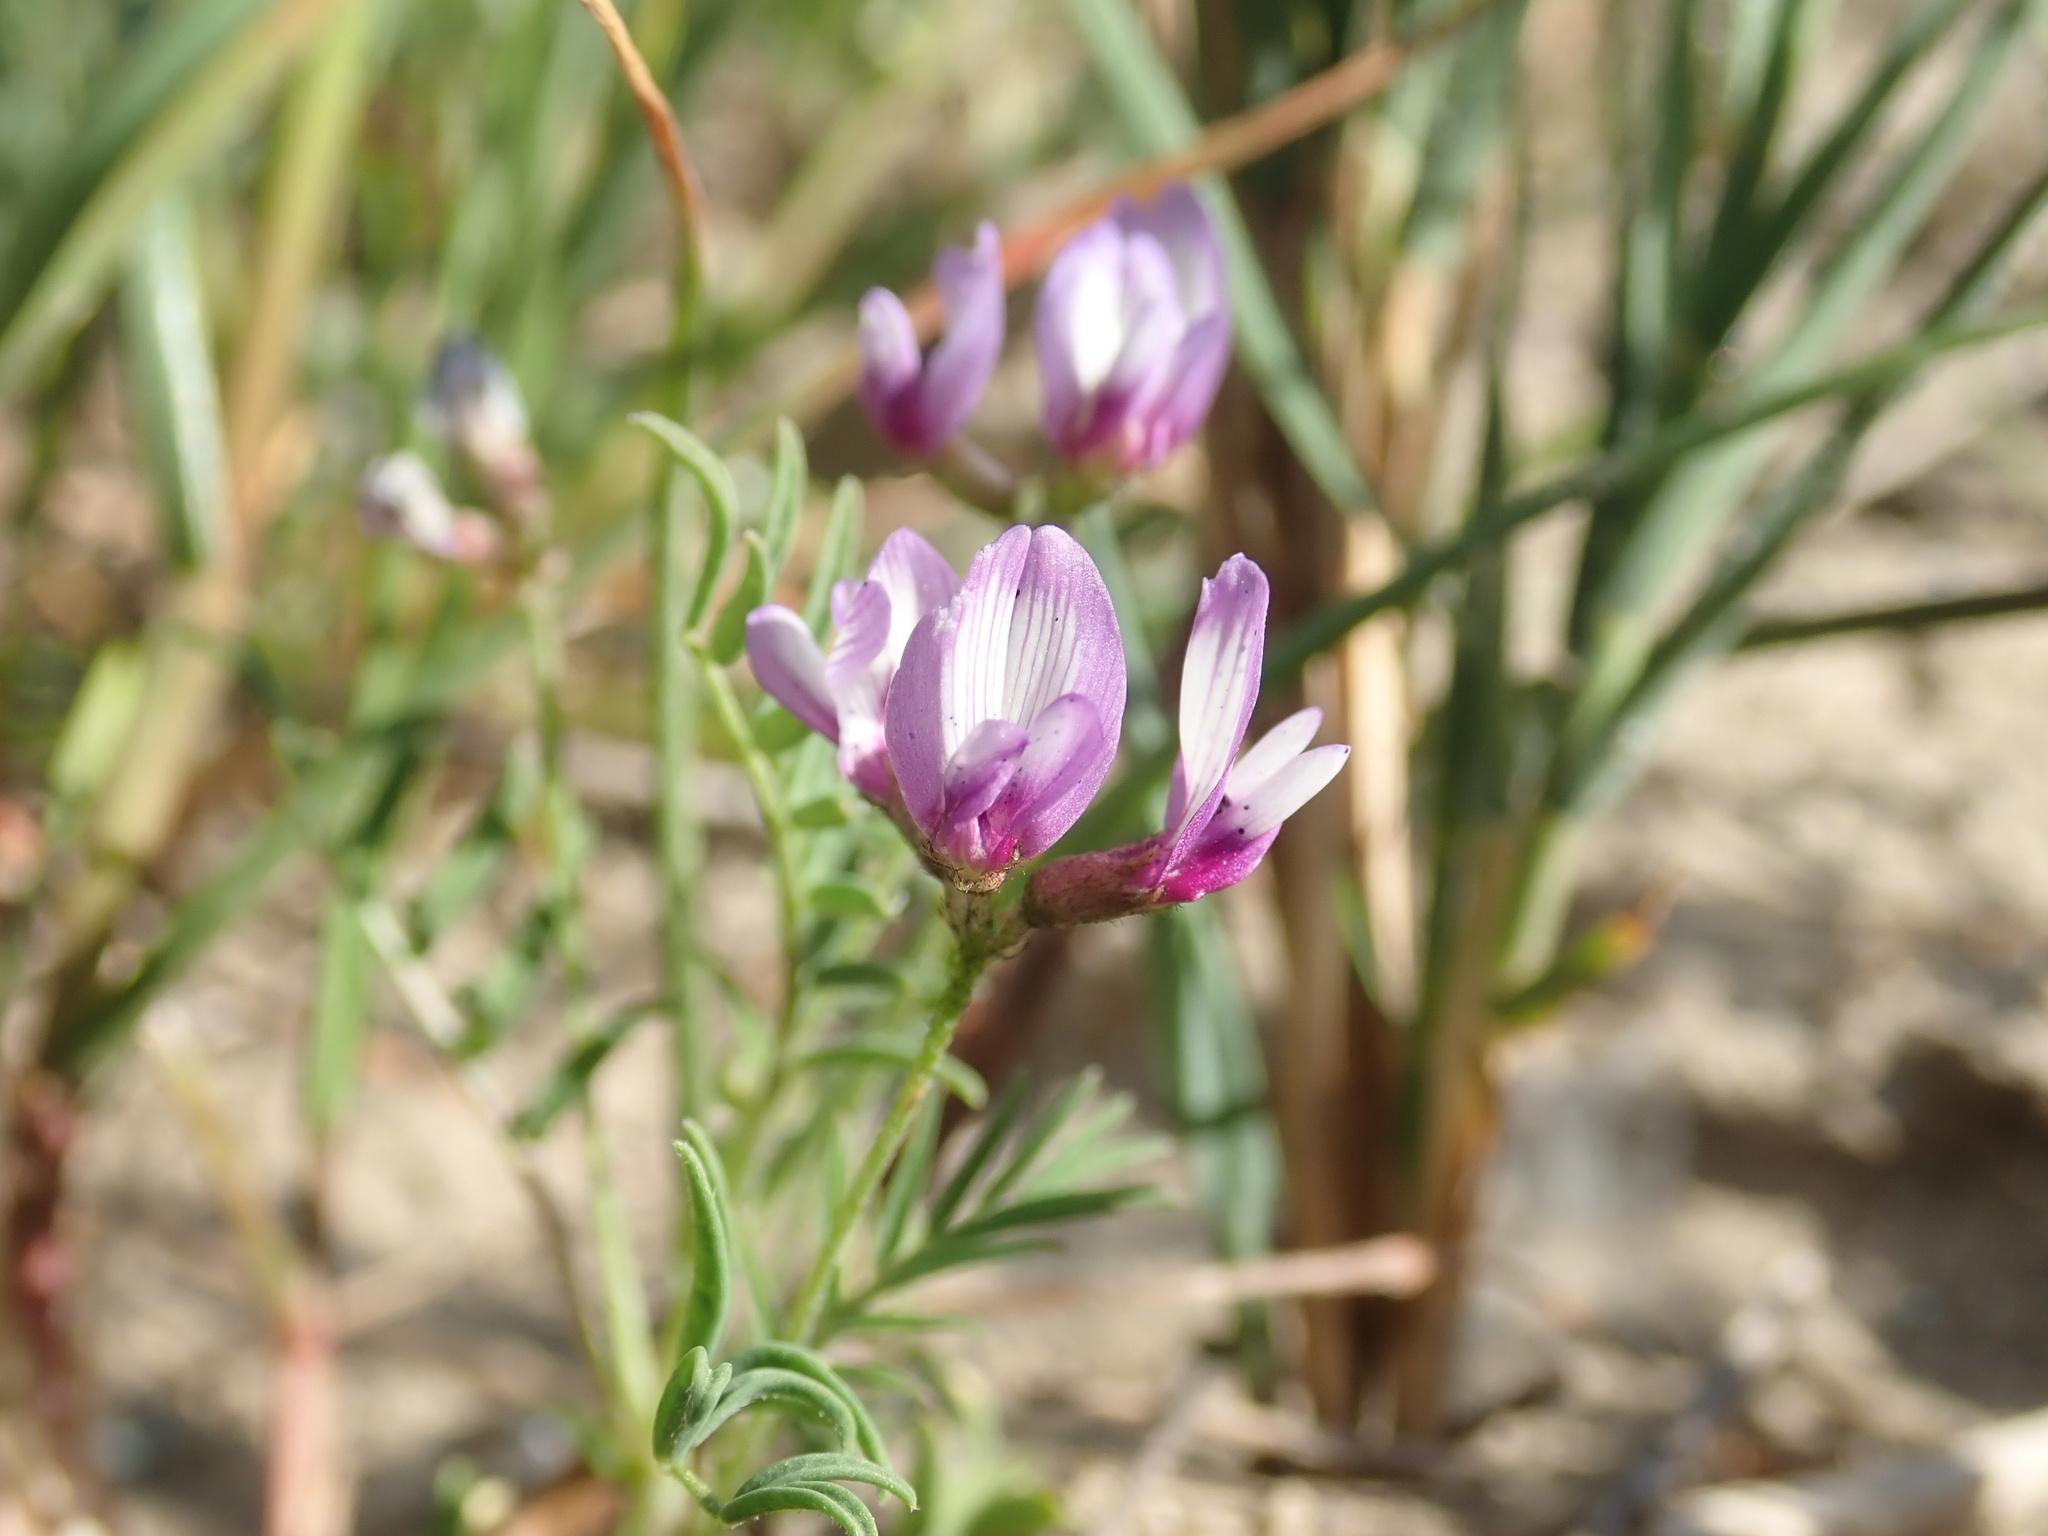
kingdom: Plantae
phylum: Tracheophyta
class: Magnoliopsida
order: Fabales
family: Fabaceae
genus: Astragalus
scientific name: Astragalus tener
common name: Gray slender milkvetch
